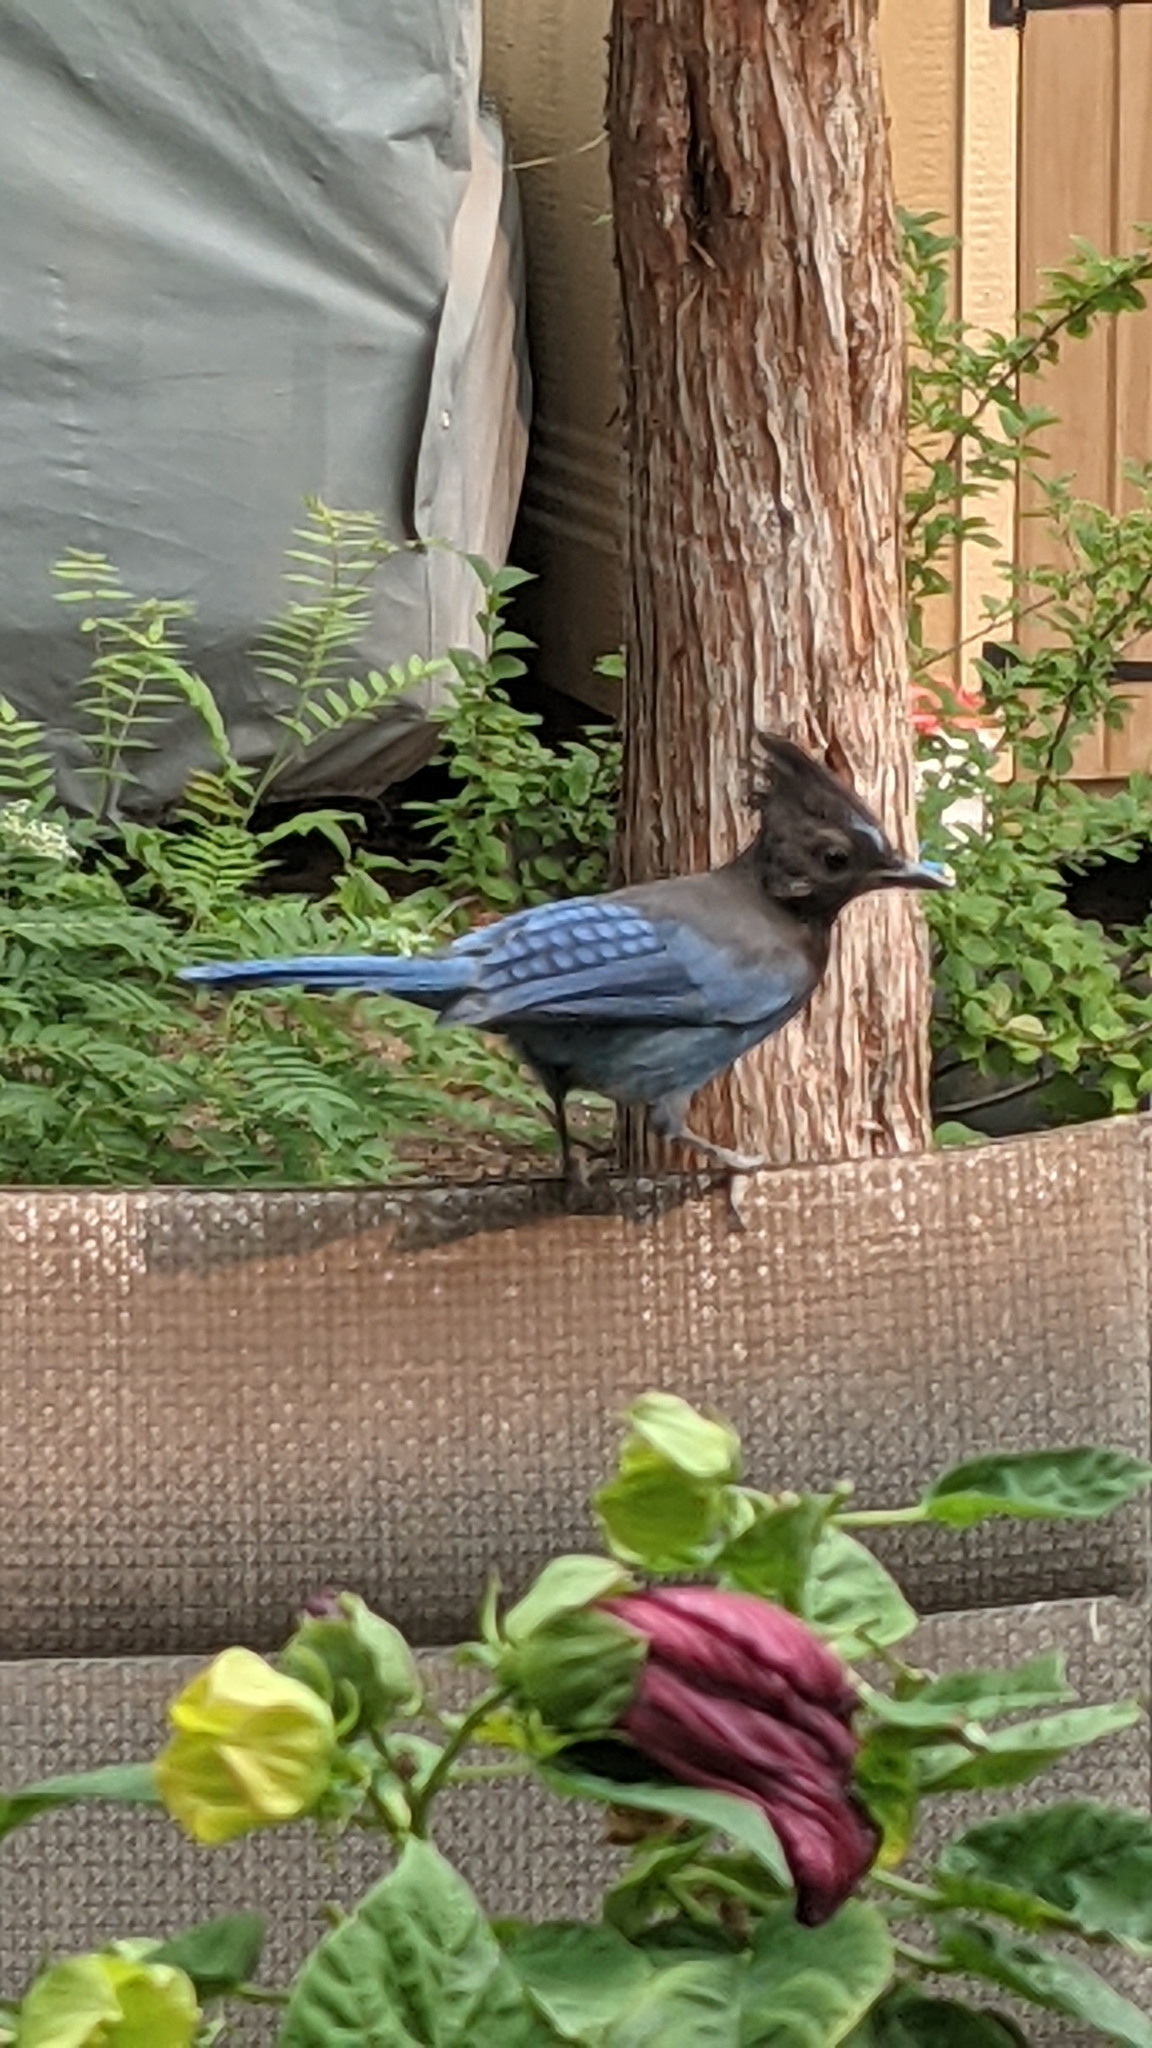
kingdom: Animalia
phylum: Chordata
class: Aves
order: Passeriformes
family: Corvidae
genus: Cyanocitta
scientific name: Cyanocitta stelleri
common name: Steller's jay
